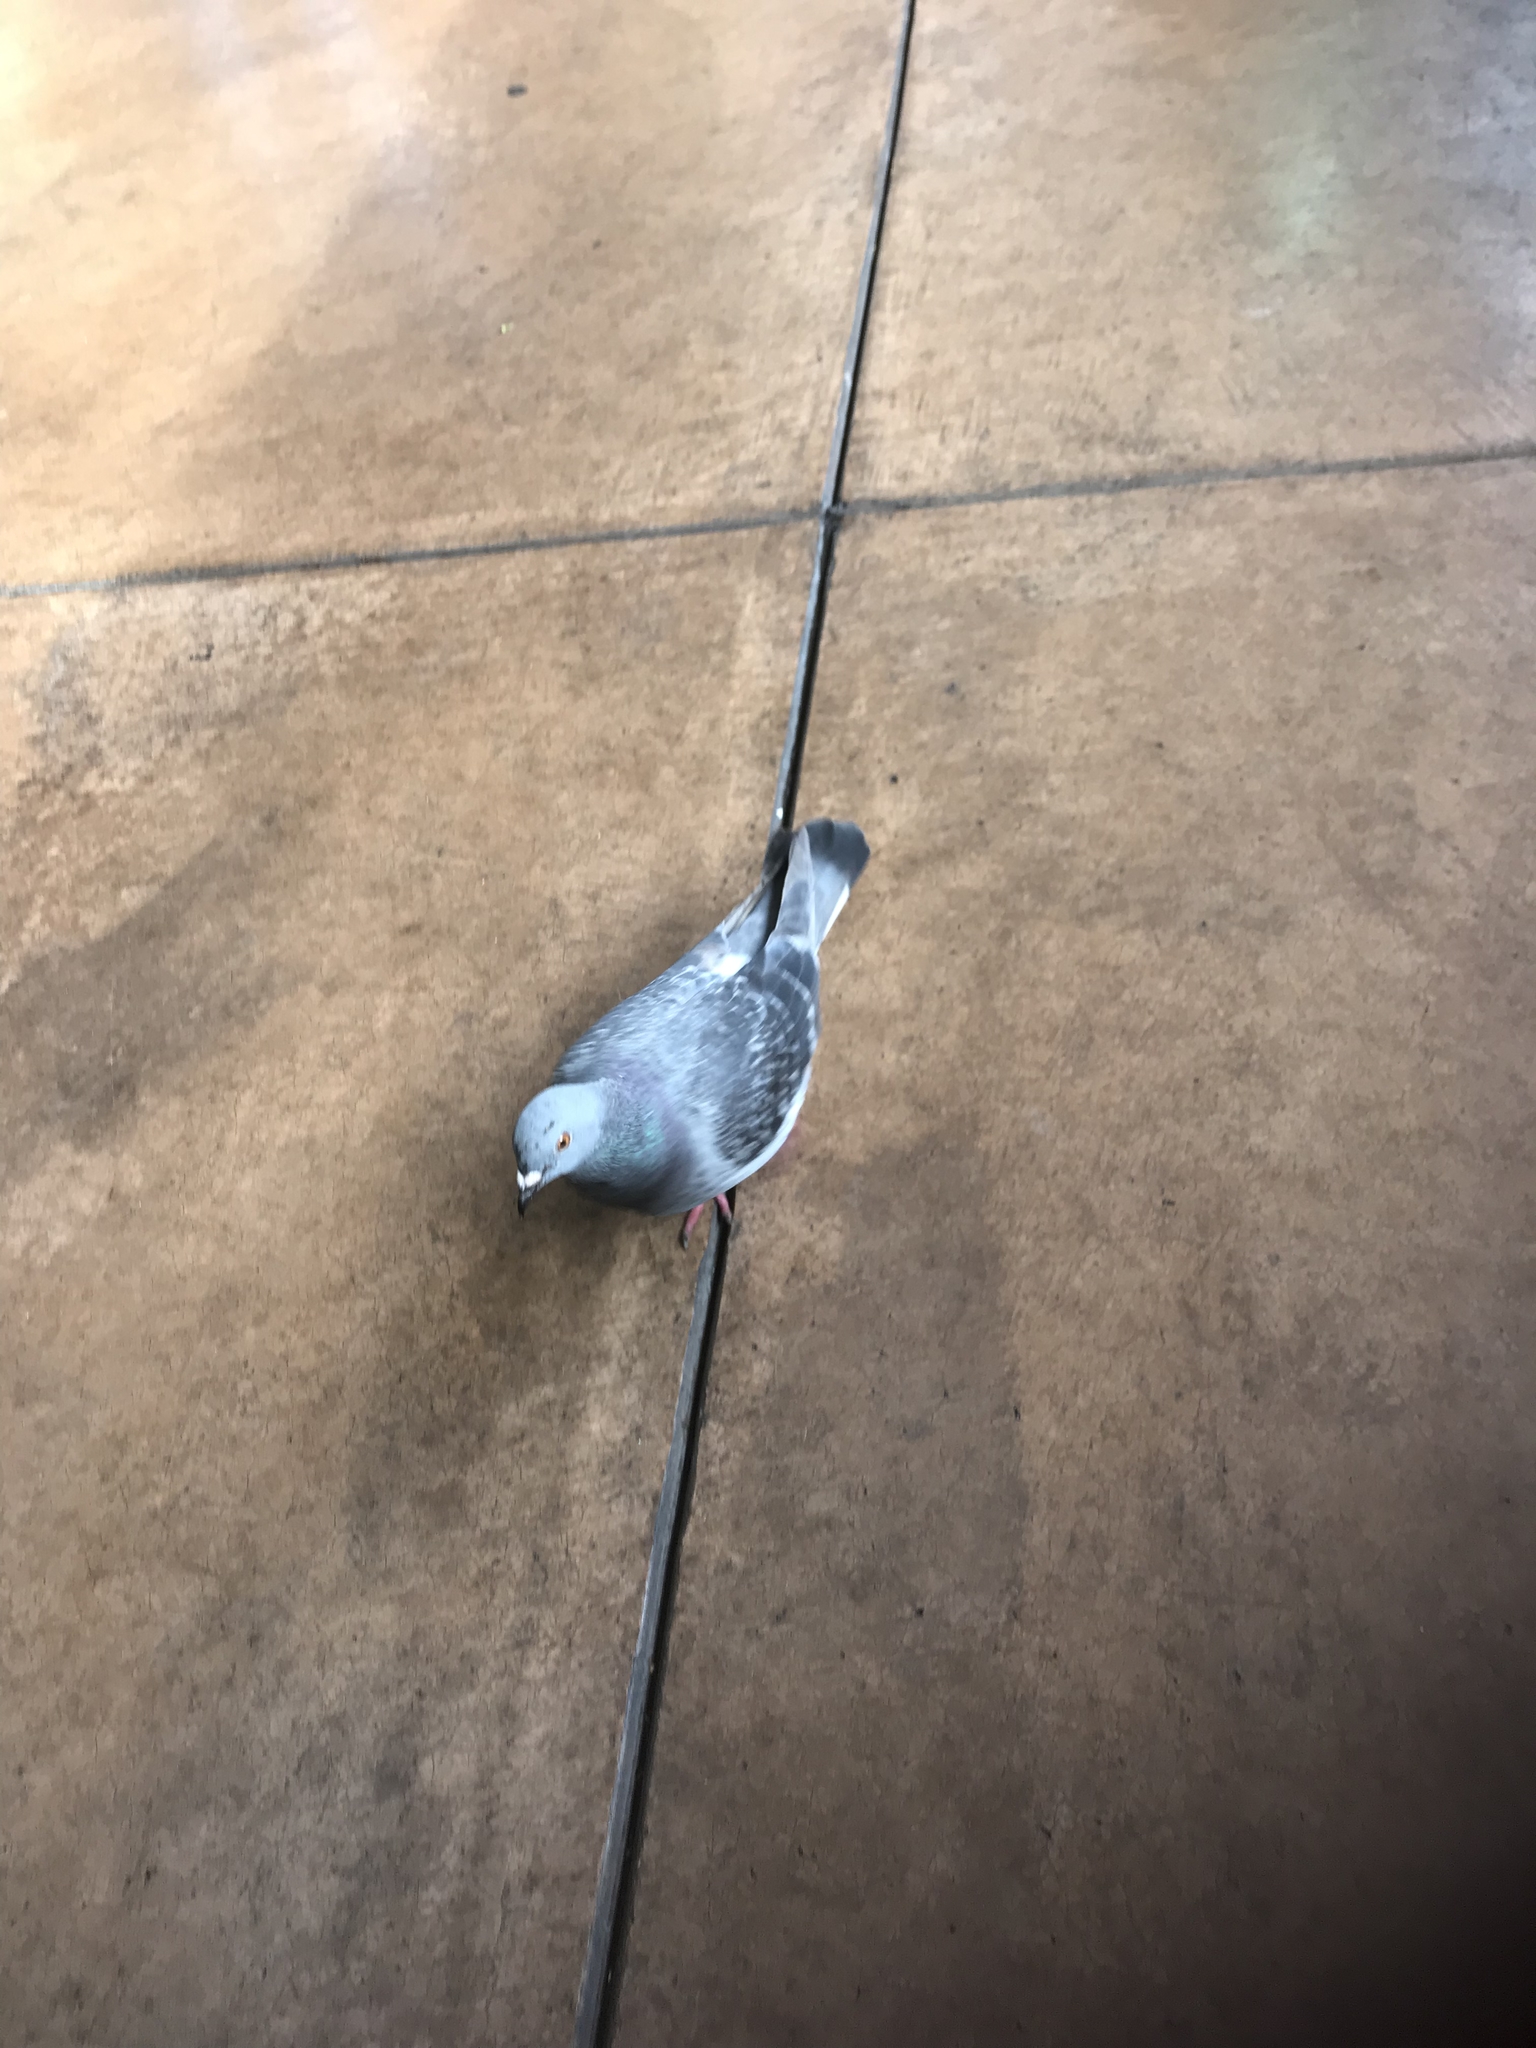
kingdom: Animalia
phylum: Chordata
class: Aves
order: Columbiformes
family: Columbidae
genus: Columba
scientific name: Columba livia
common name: Rock pigeon
